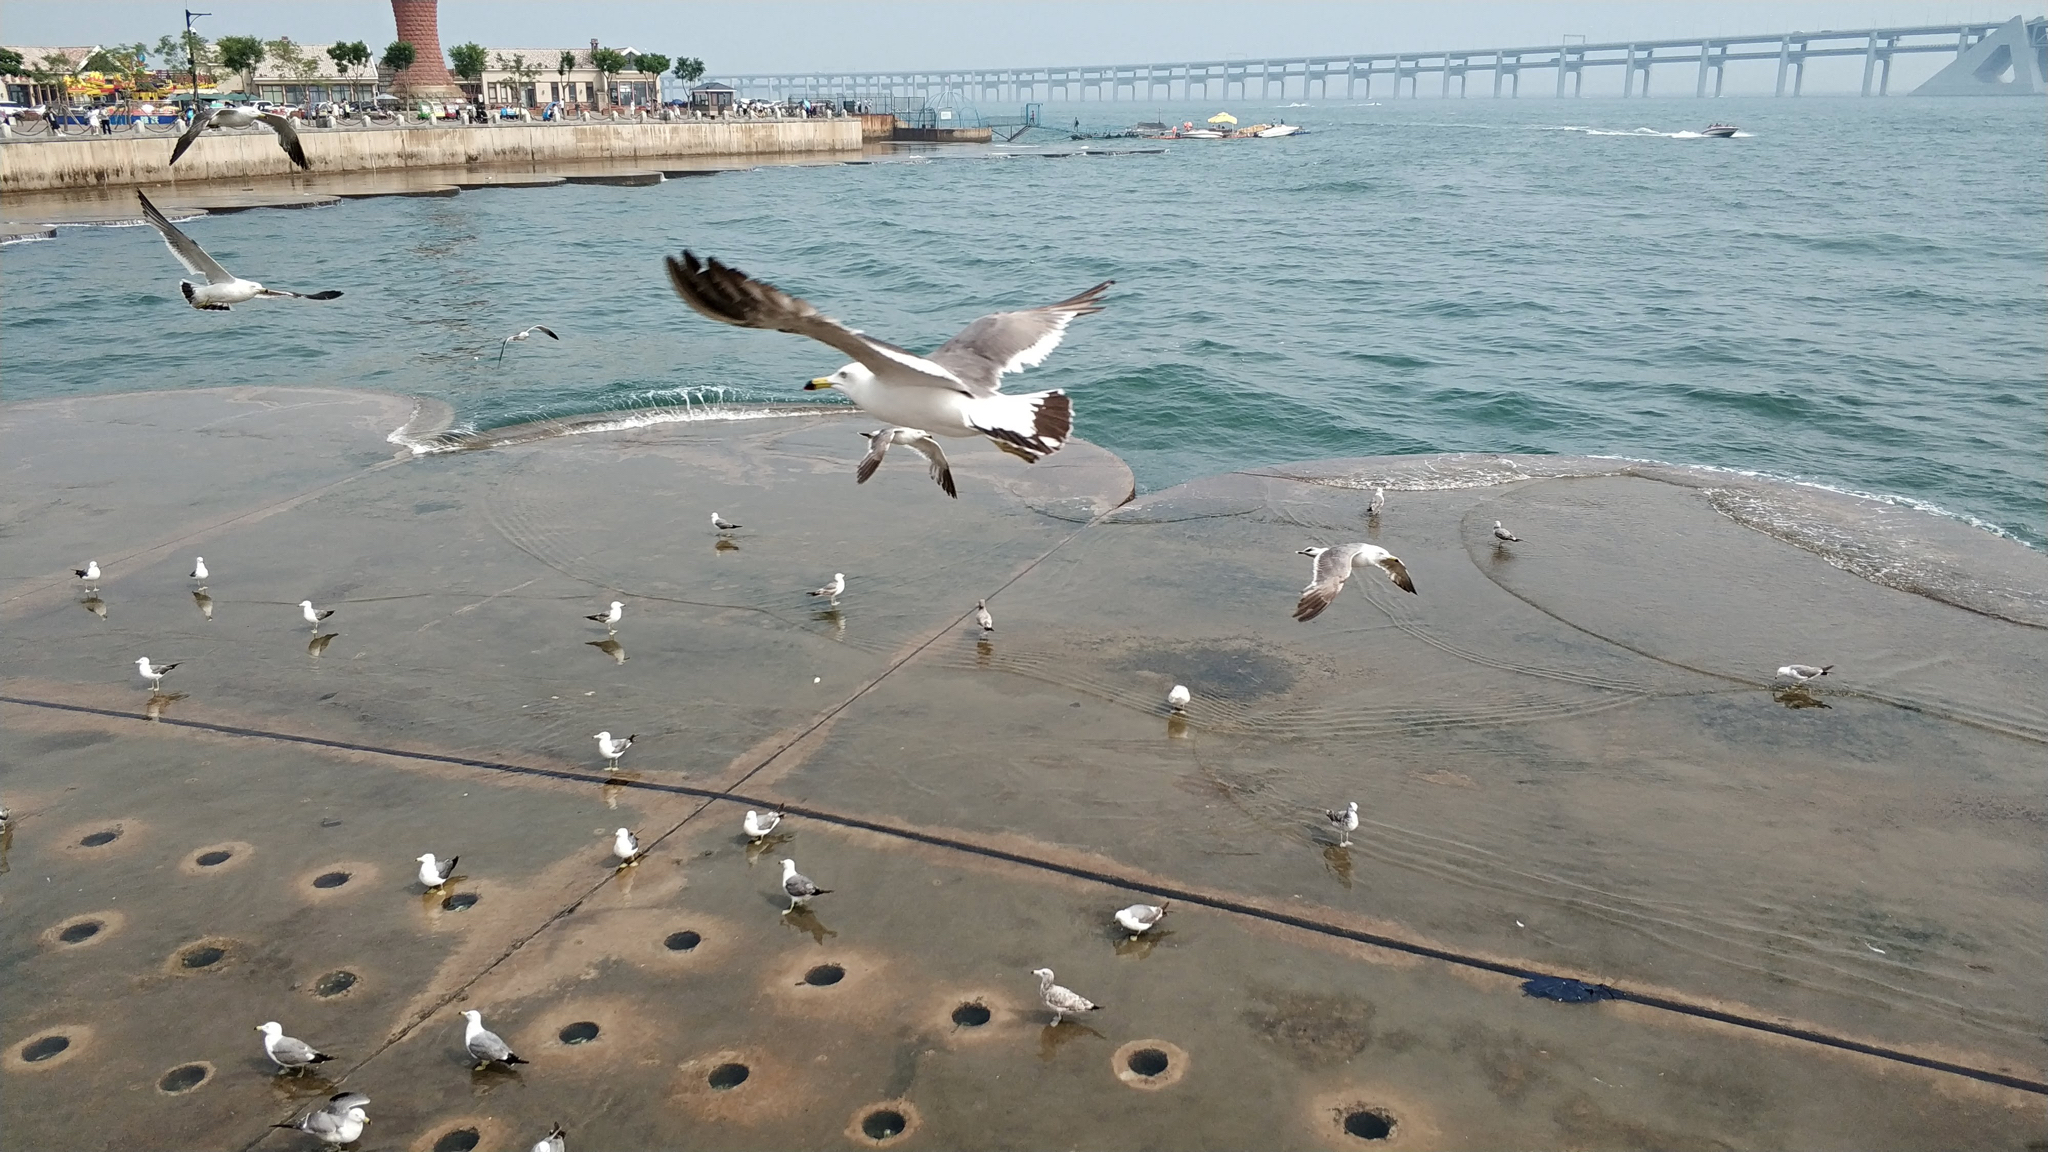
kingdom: Animalia
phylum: Chordata
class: Aves
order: Charadriiformes
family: Laridae
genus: Larus
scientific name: Larus crassirostris
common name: Black-tailed gull
